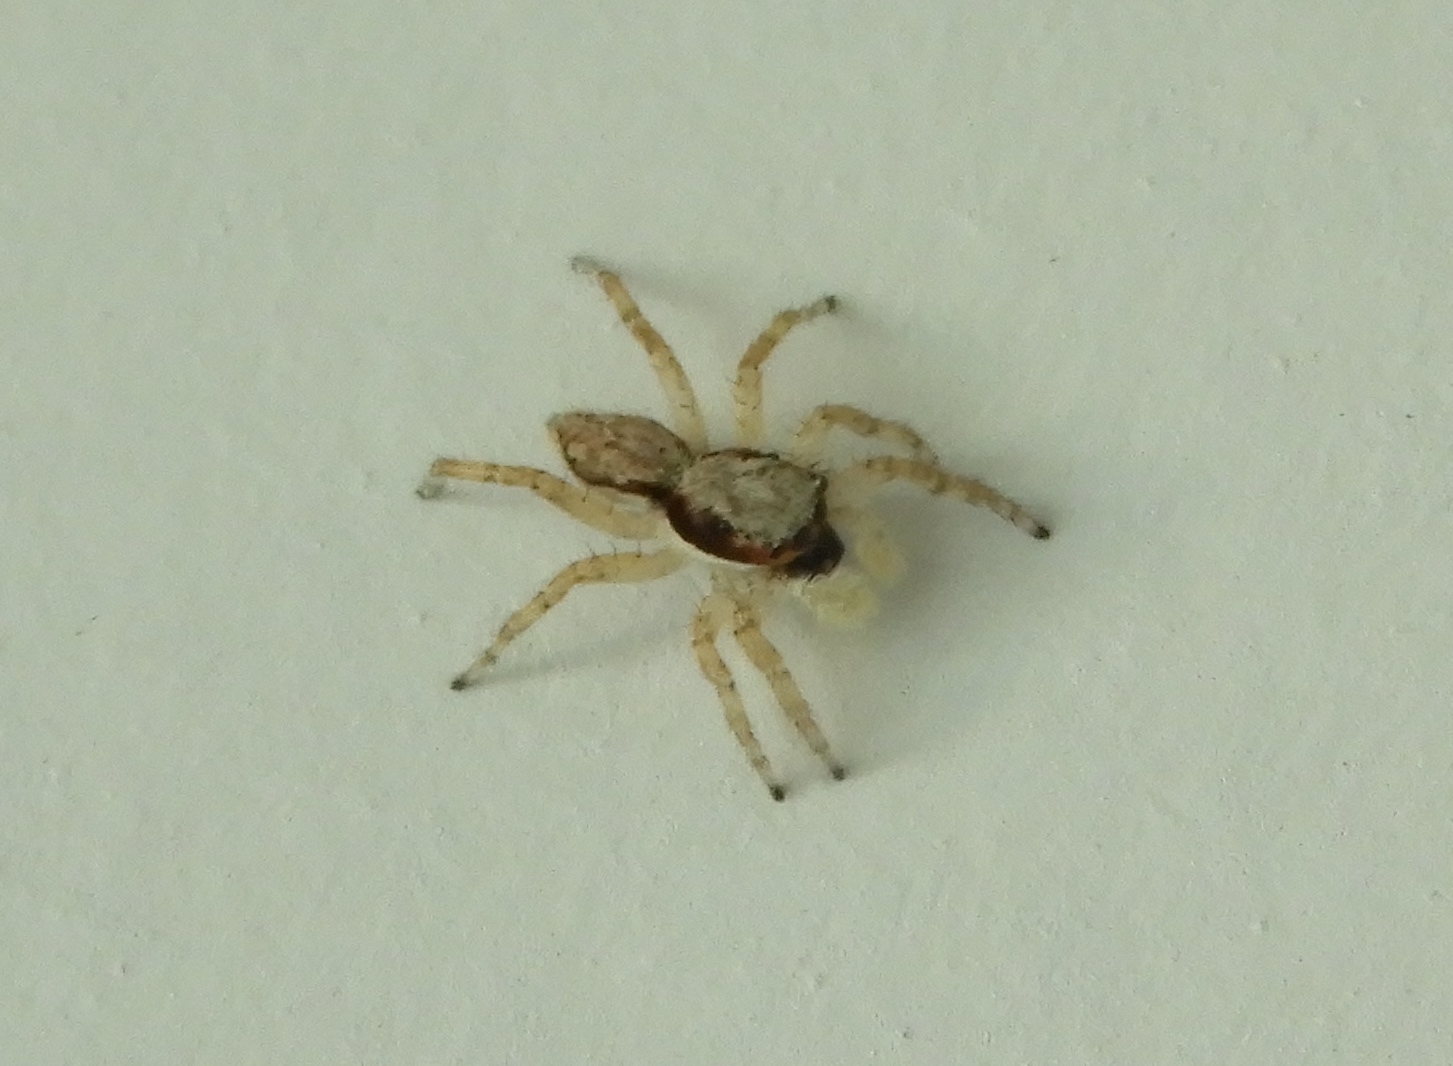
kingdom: Animalia
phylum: Arthropoda
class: Arachnida
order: Araneae
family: Salticidae
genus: Menemerus
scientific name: Menemerus bivittatus
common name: Gray wall jumper
